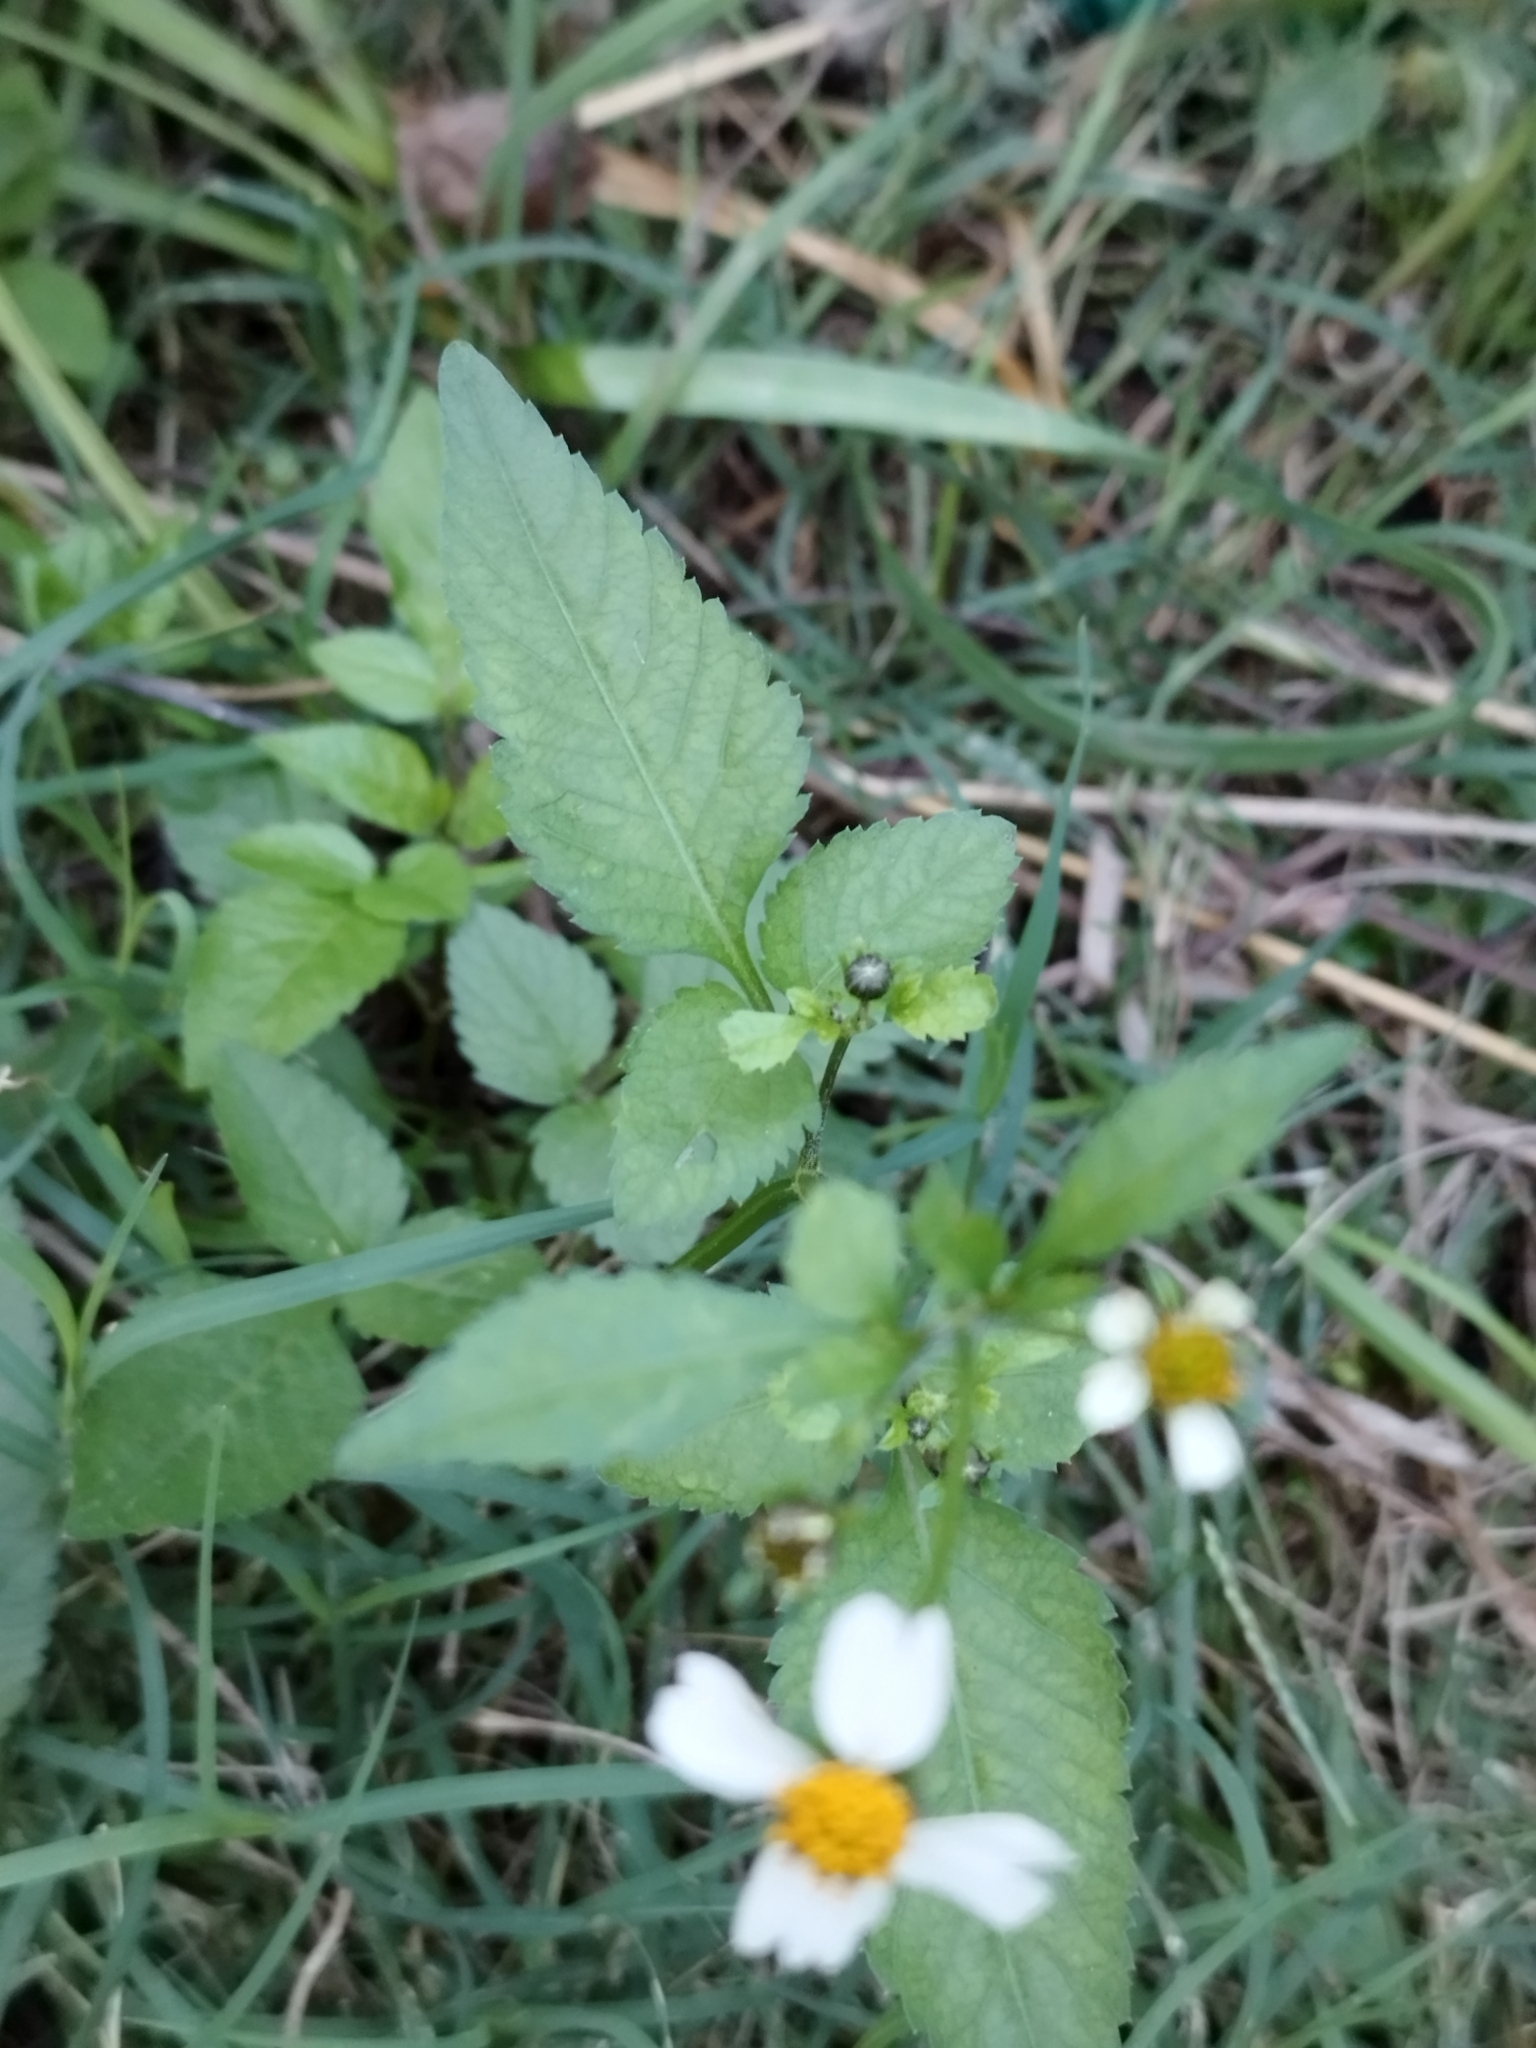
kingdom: Plantae
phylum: Tracheophyta
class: Magnoliopsida
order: Asterales
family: Asteraceae
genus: Bidens
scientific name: Bidens pilosa
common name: Black-jack
